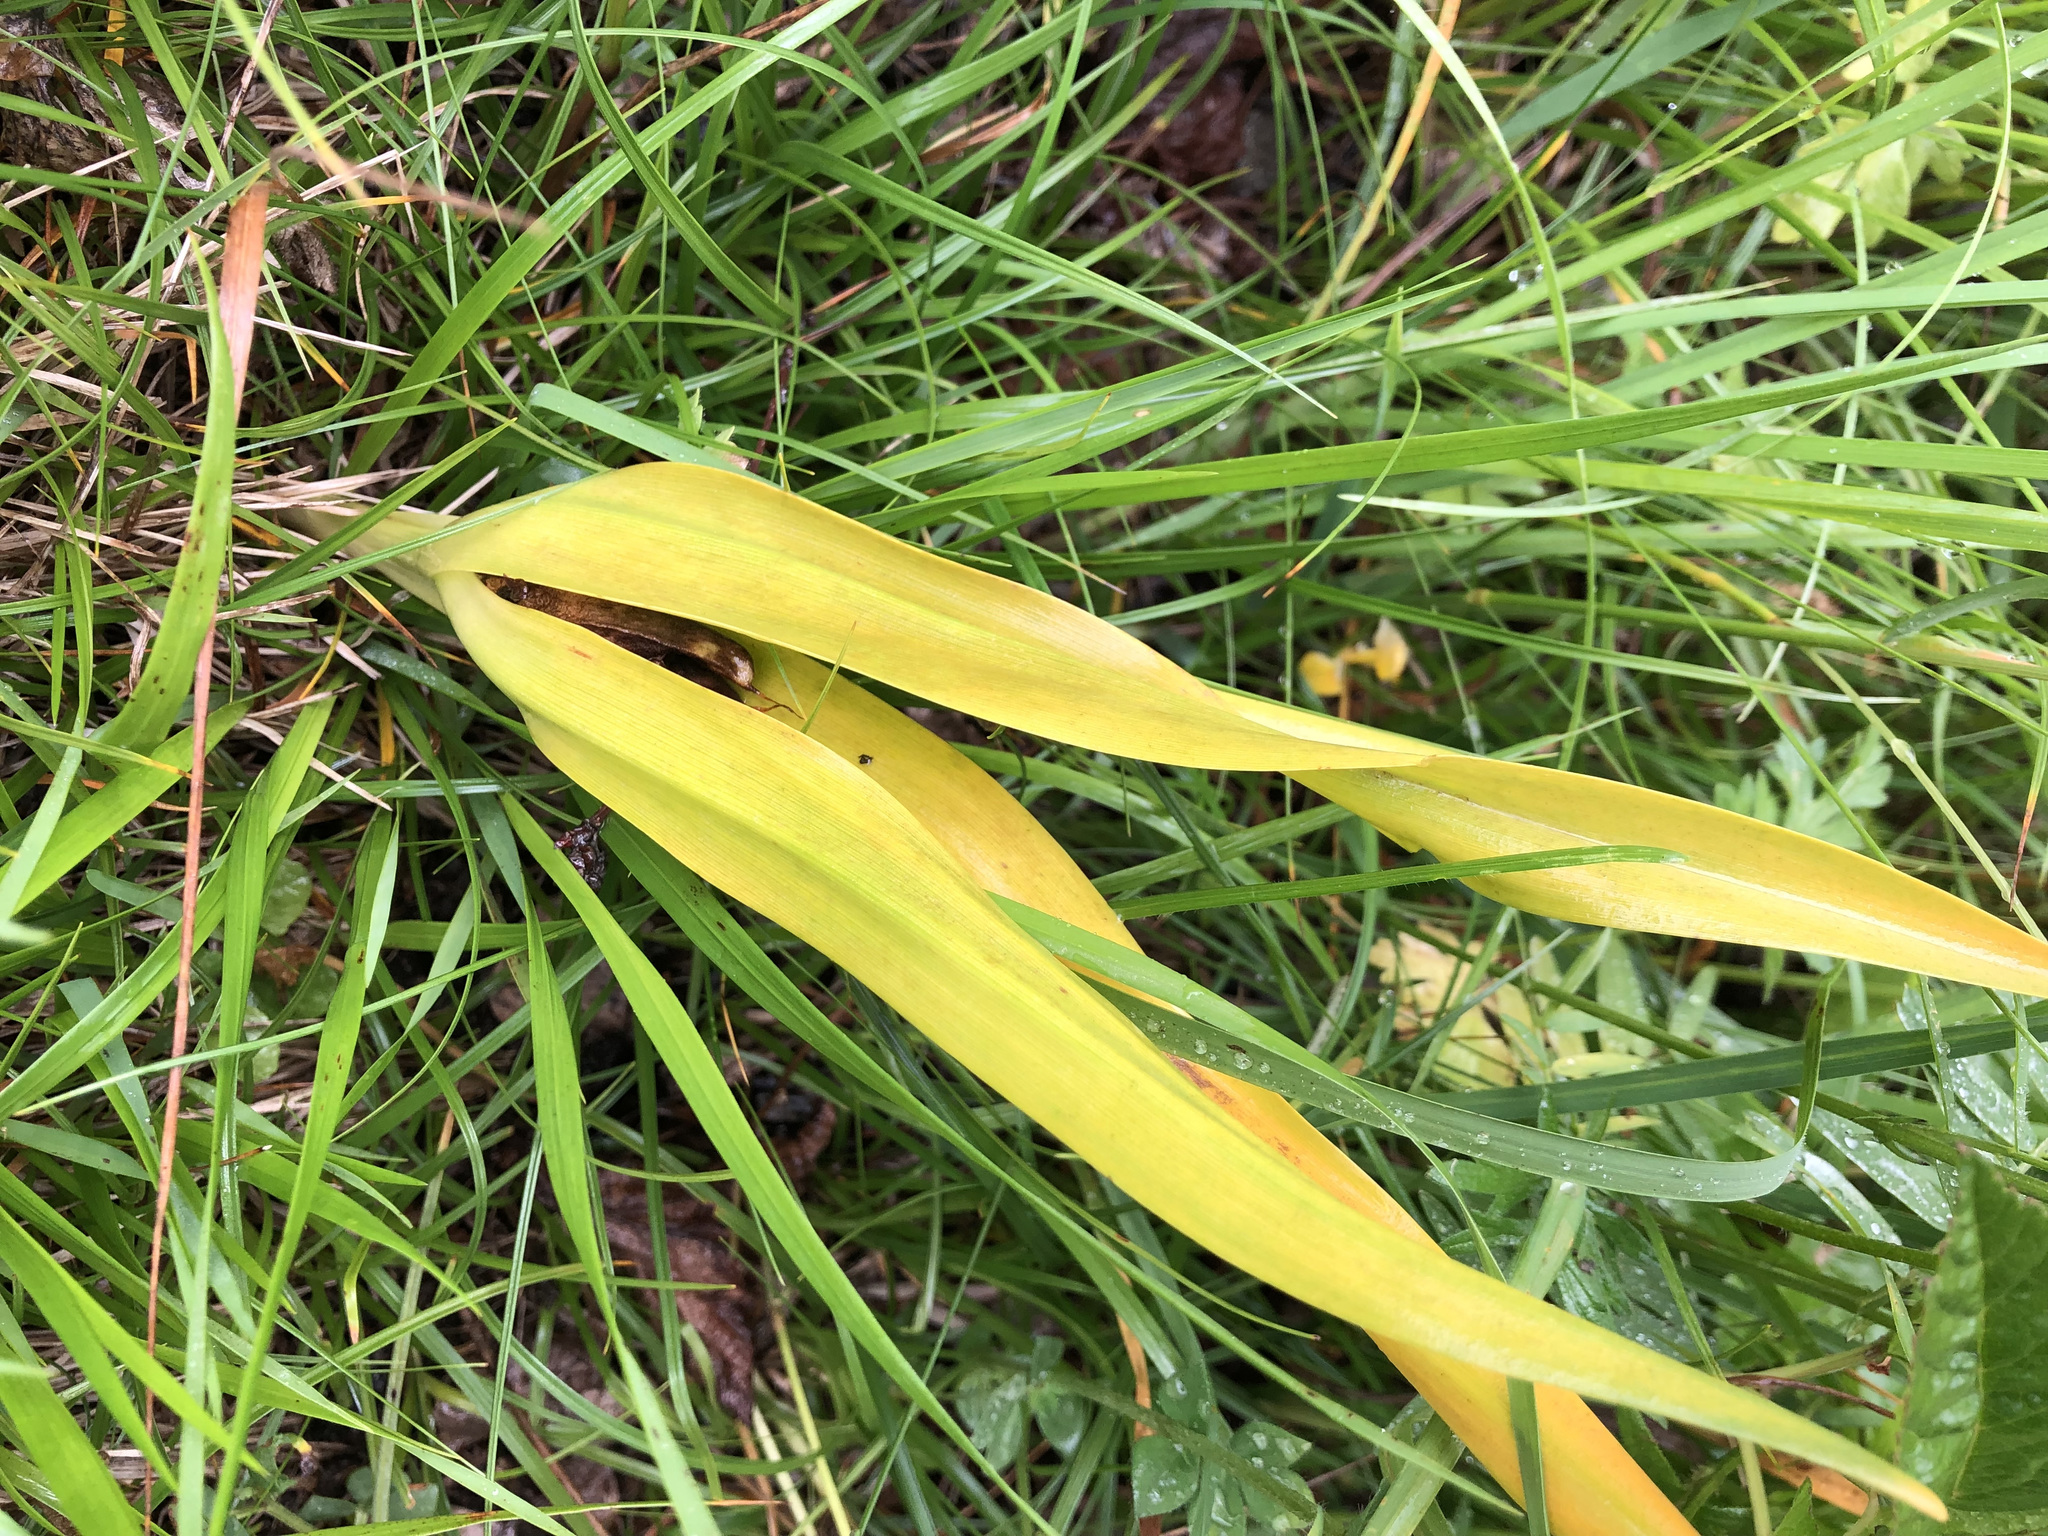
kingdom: Plantae
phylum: Tracheophyta
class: Liliopsida
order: Liliales
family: Colchicaceae
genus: Colchicum
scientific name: Colchicum autumnale
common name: Autumn crocus
